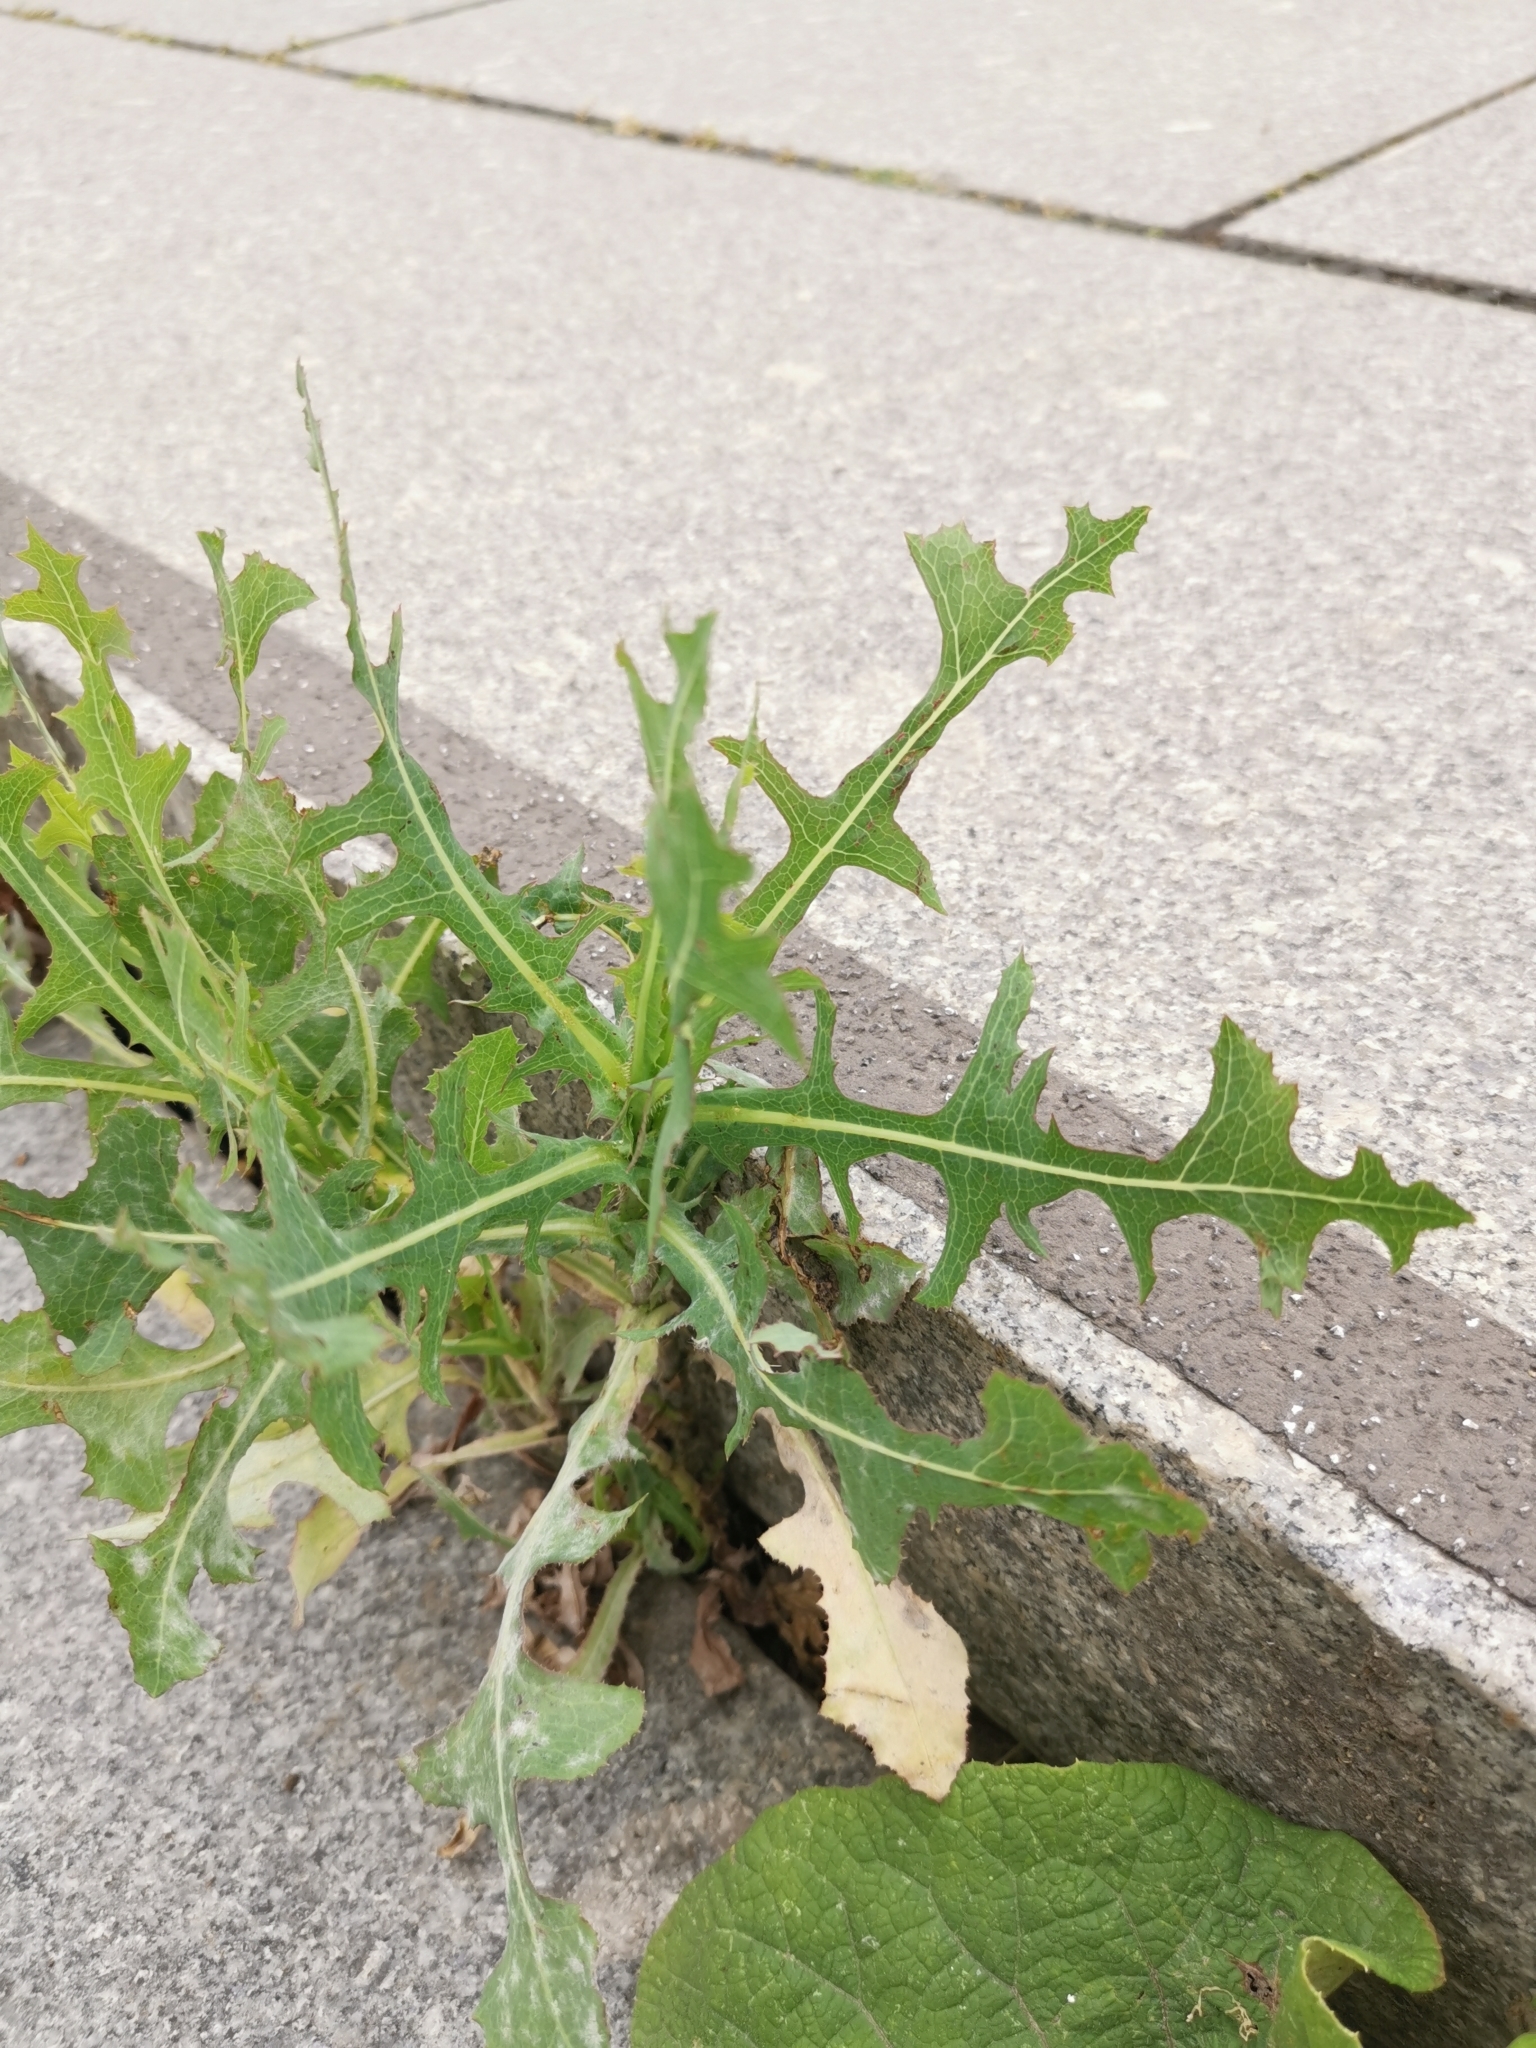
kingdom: Plantae
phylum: Tracheophyta
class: Magnoliopsida
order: Asterales
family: Asteraceae
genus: Lactuca
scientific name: Lactuca serriola
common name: Prickly lettuce
